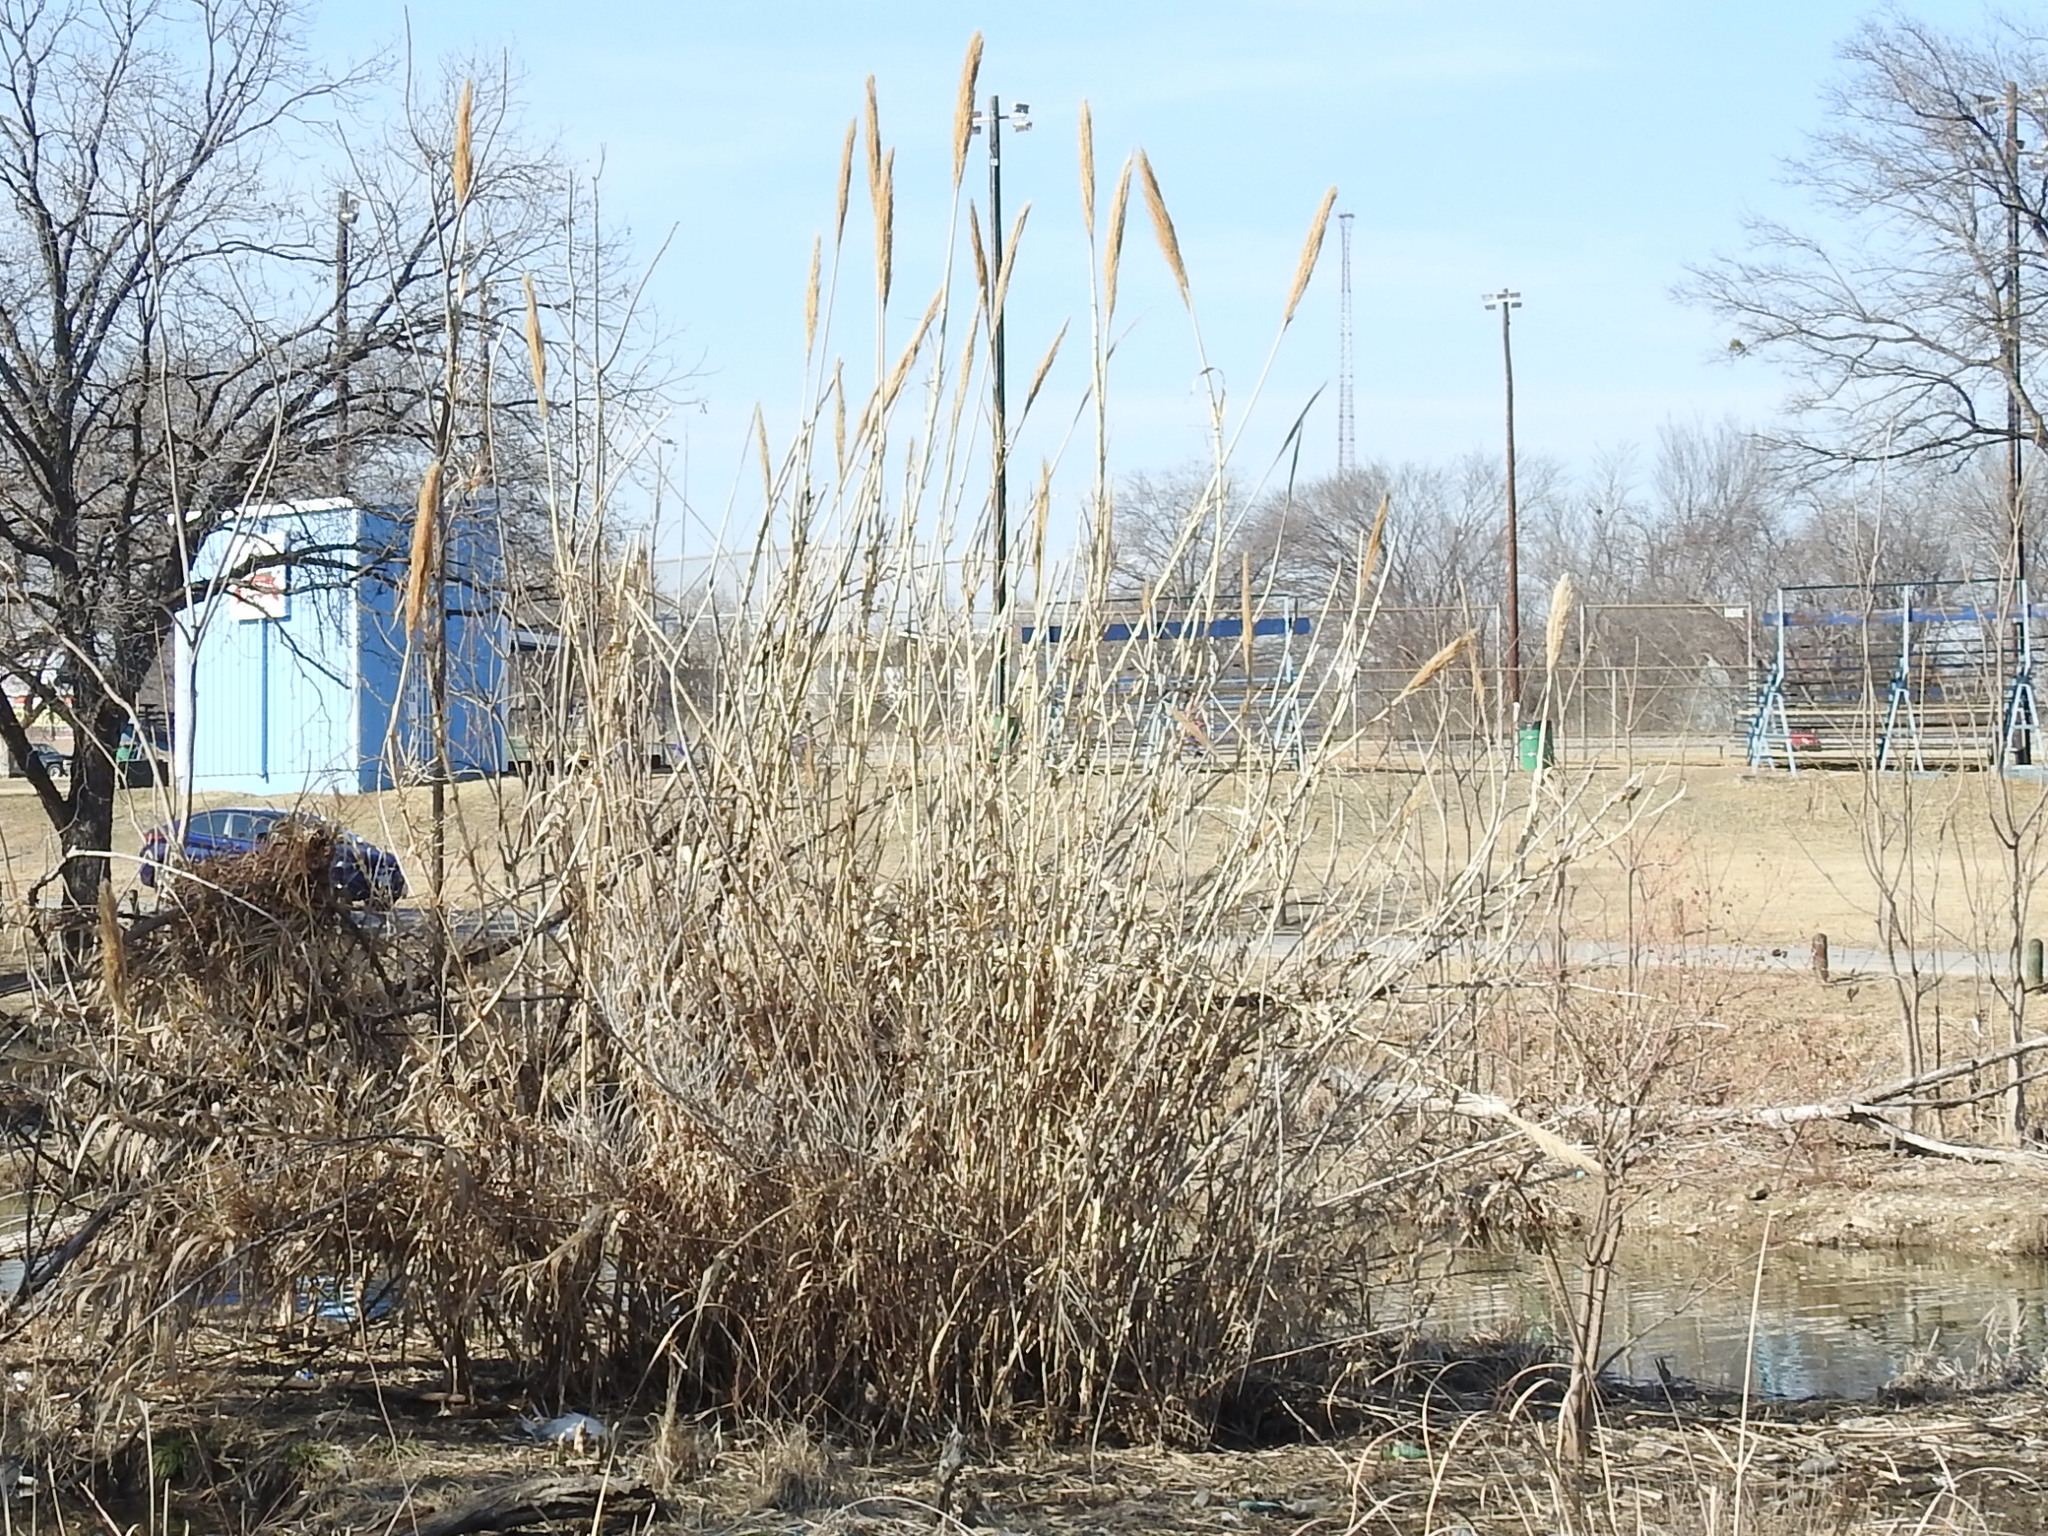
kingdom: Plantae
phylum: Tracheophyta
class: Liliopsida
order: Poales
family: Poaceae
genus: Arundo
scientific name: Arundo donax
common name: Giant reed
